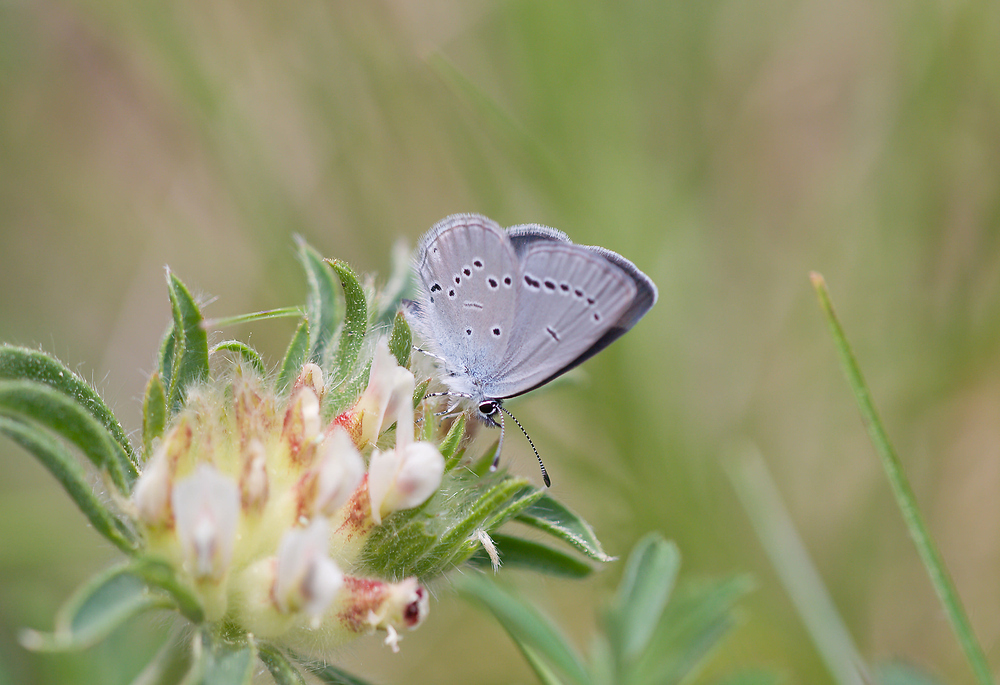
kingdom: Animalia
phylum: Arthropoda
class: Insecta
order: Lepidoptera
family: Lycaenidae
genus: Cupido
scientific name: Cupido minimus
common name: Small blue
